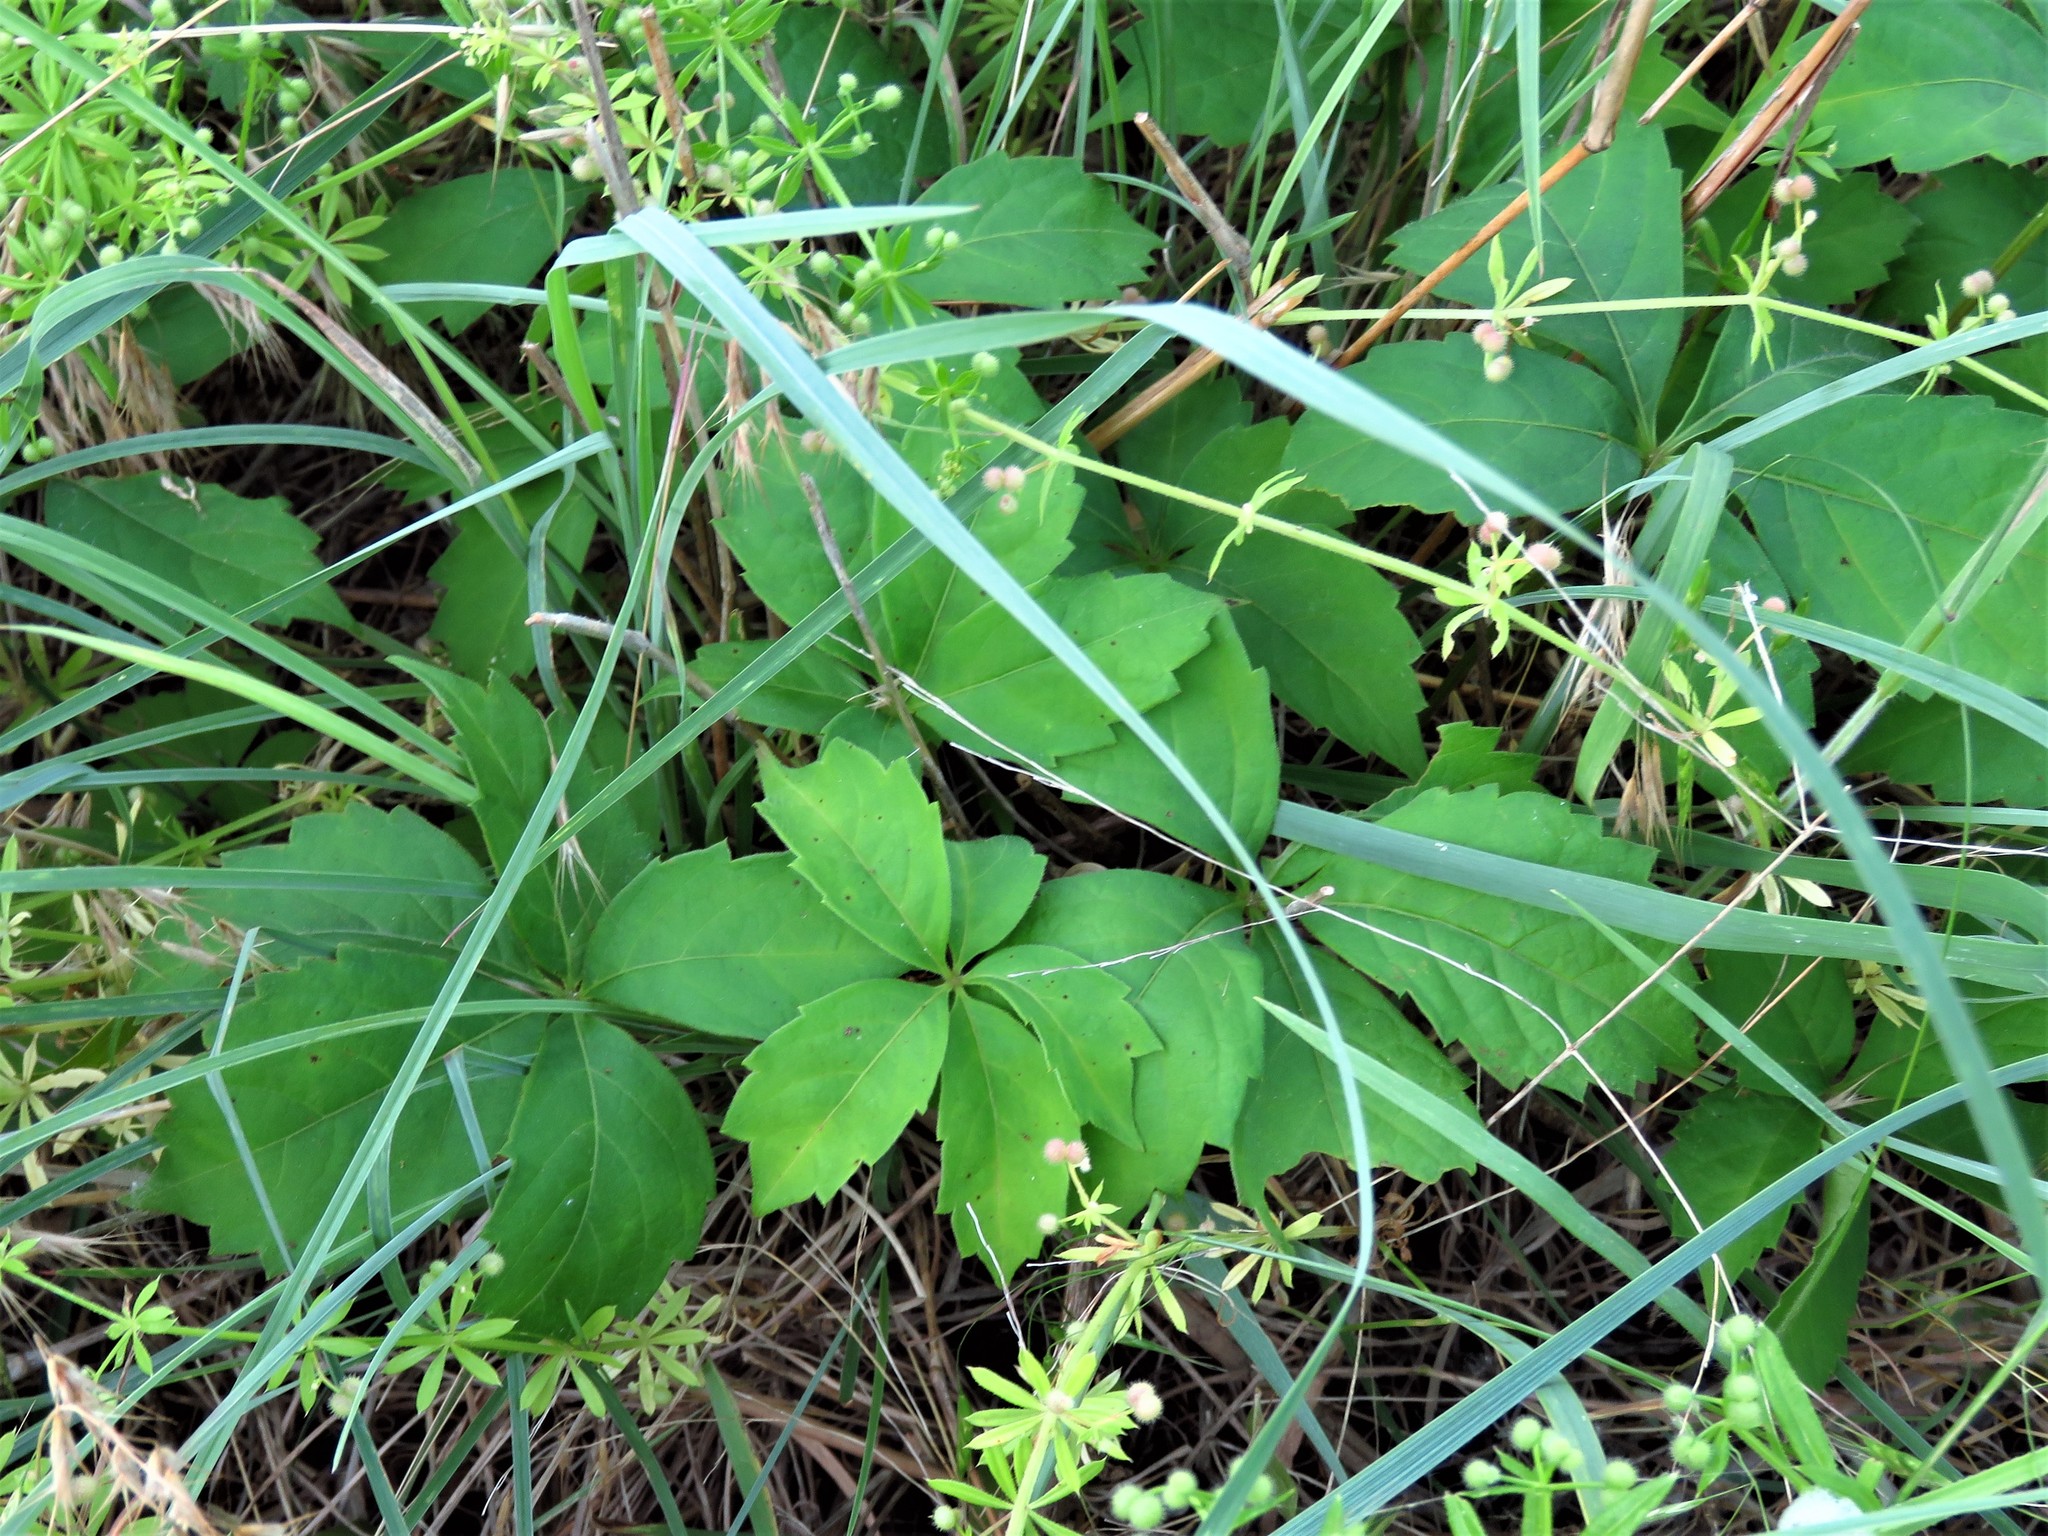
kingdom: Plantae
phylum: Tracheophyta
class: Magnoliopsida
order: Vitales
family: Vitaceae
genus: Parthenocissus
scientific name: Parthenocissus quinquefolia
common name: Virginia-creeper
